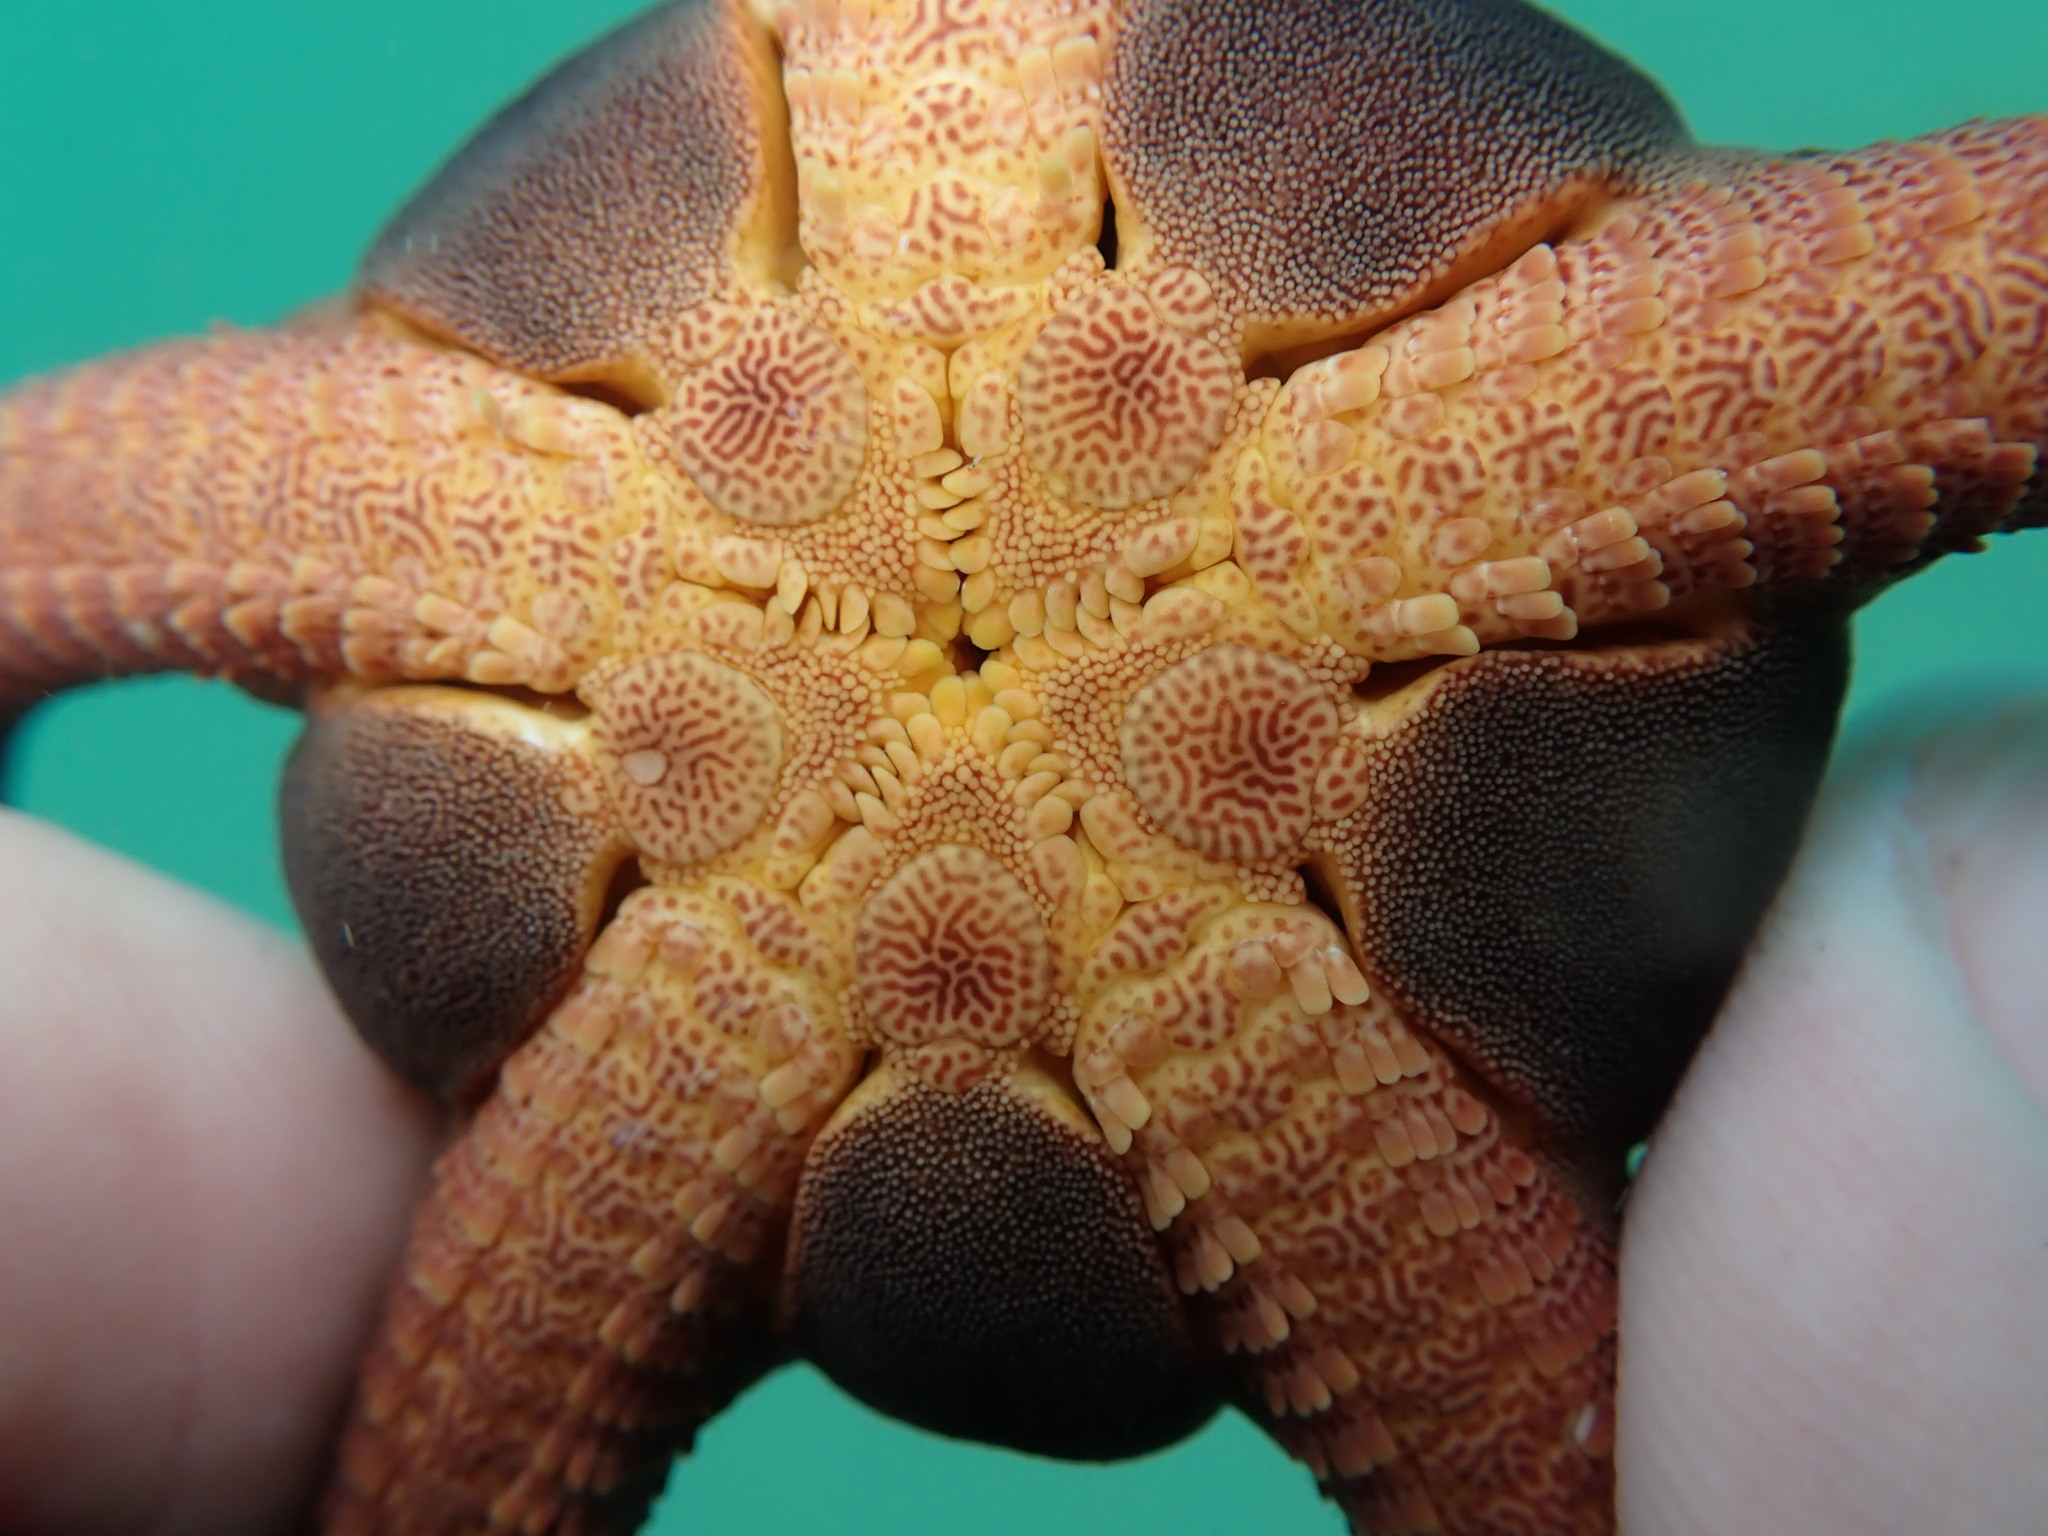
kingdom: Animalia
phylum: Echinodermata
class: Ophiuroidea
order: Ophiacanthida
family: Ophiodermatidae
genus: Ophiopsammus
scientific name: Ophiopsammus maculata
